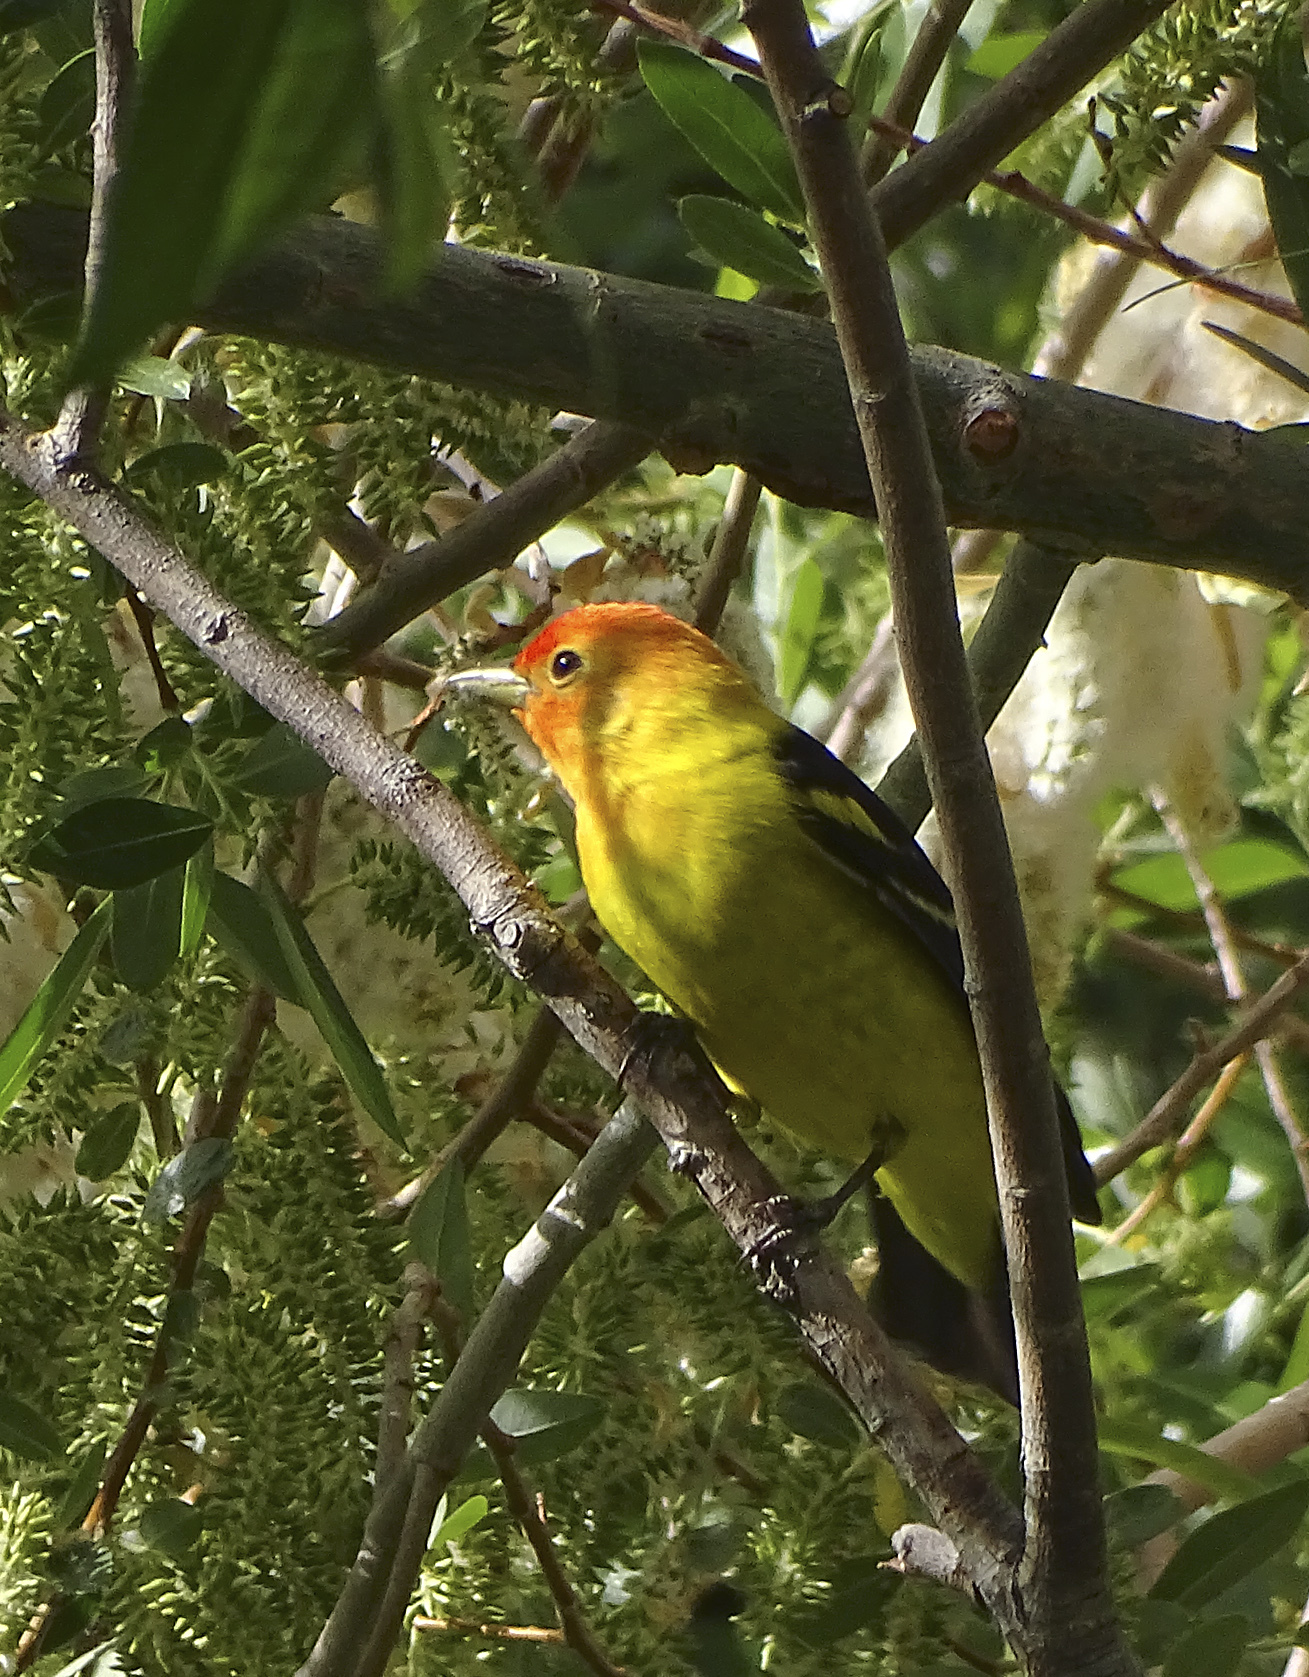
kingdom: Animalia
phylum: Chordata
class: Aves
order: Passeriformes
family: Cardinalidae
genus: Piranga
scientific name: Piranga ludoviciana
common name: Western tanager
